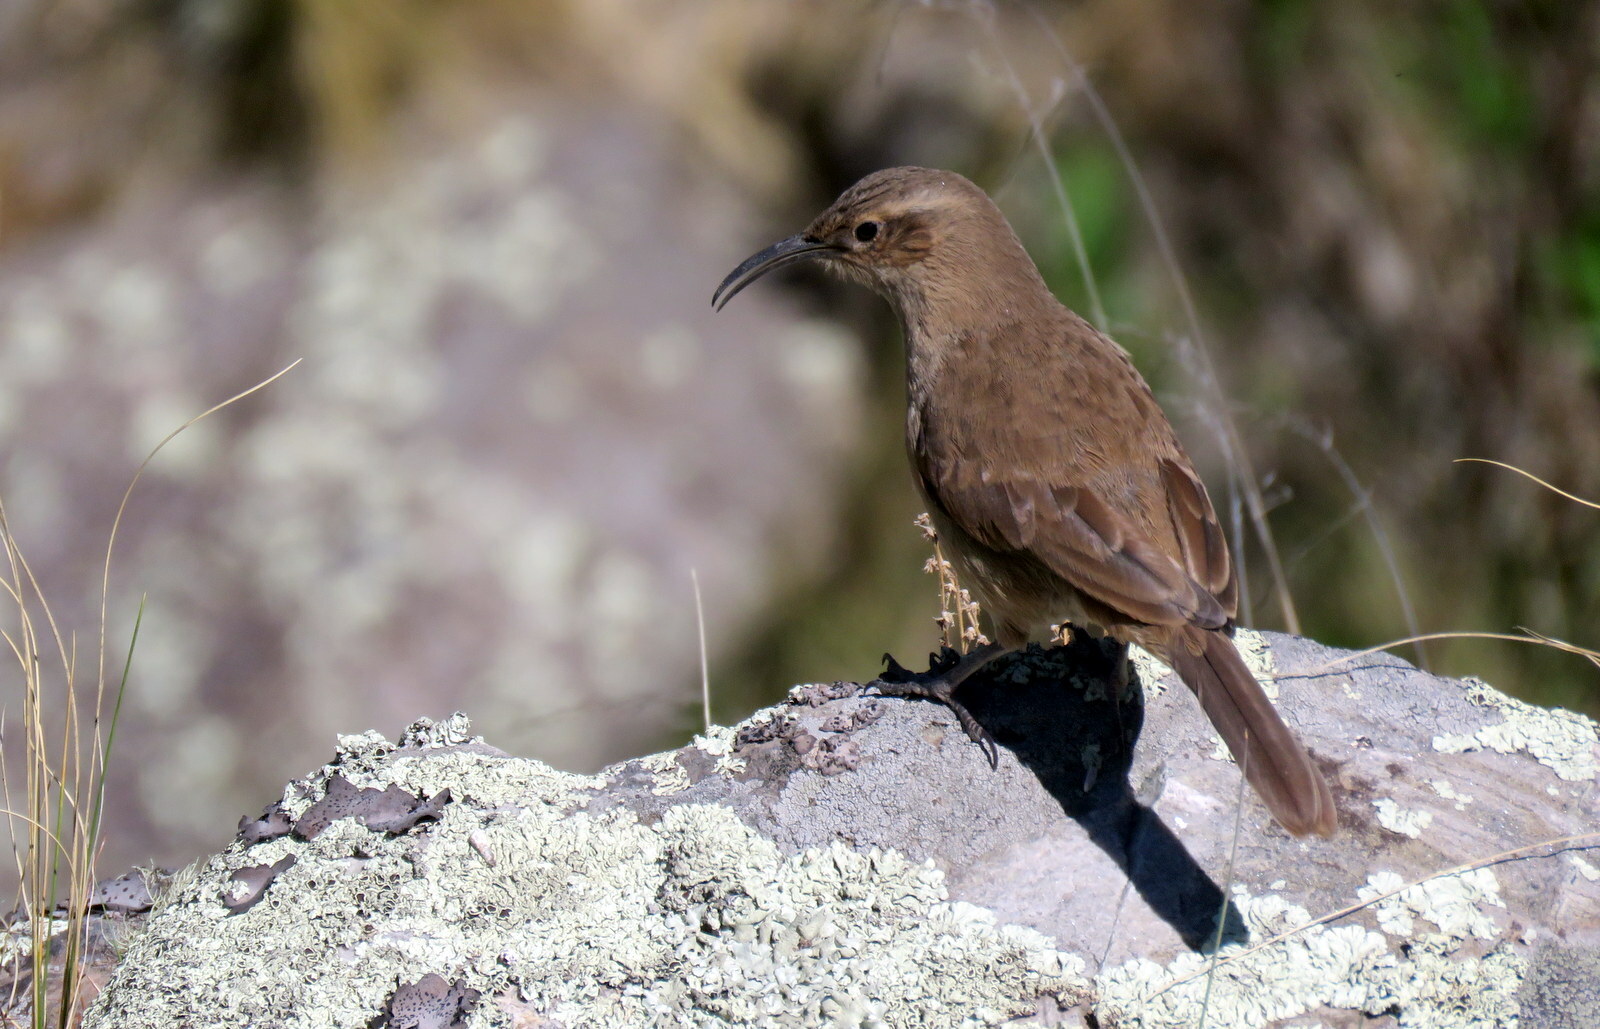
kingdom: Animalia
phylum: Chordata
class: Aves
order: Passeriformes
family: Furnariidae
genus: Upucerthia
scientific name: Upucerthia validirostris
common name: Buff-breasted earthcreeper
